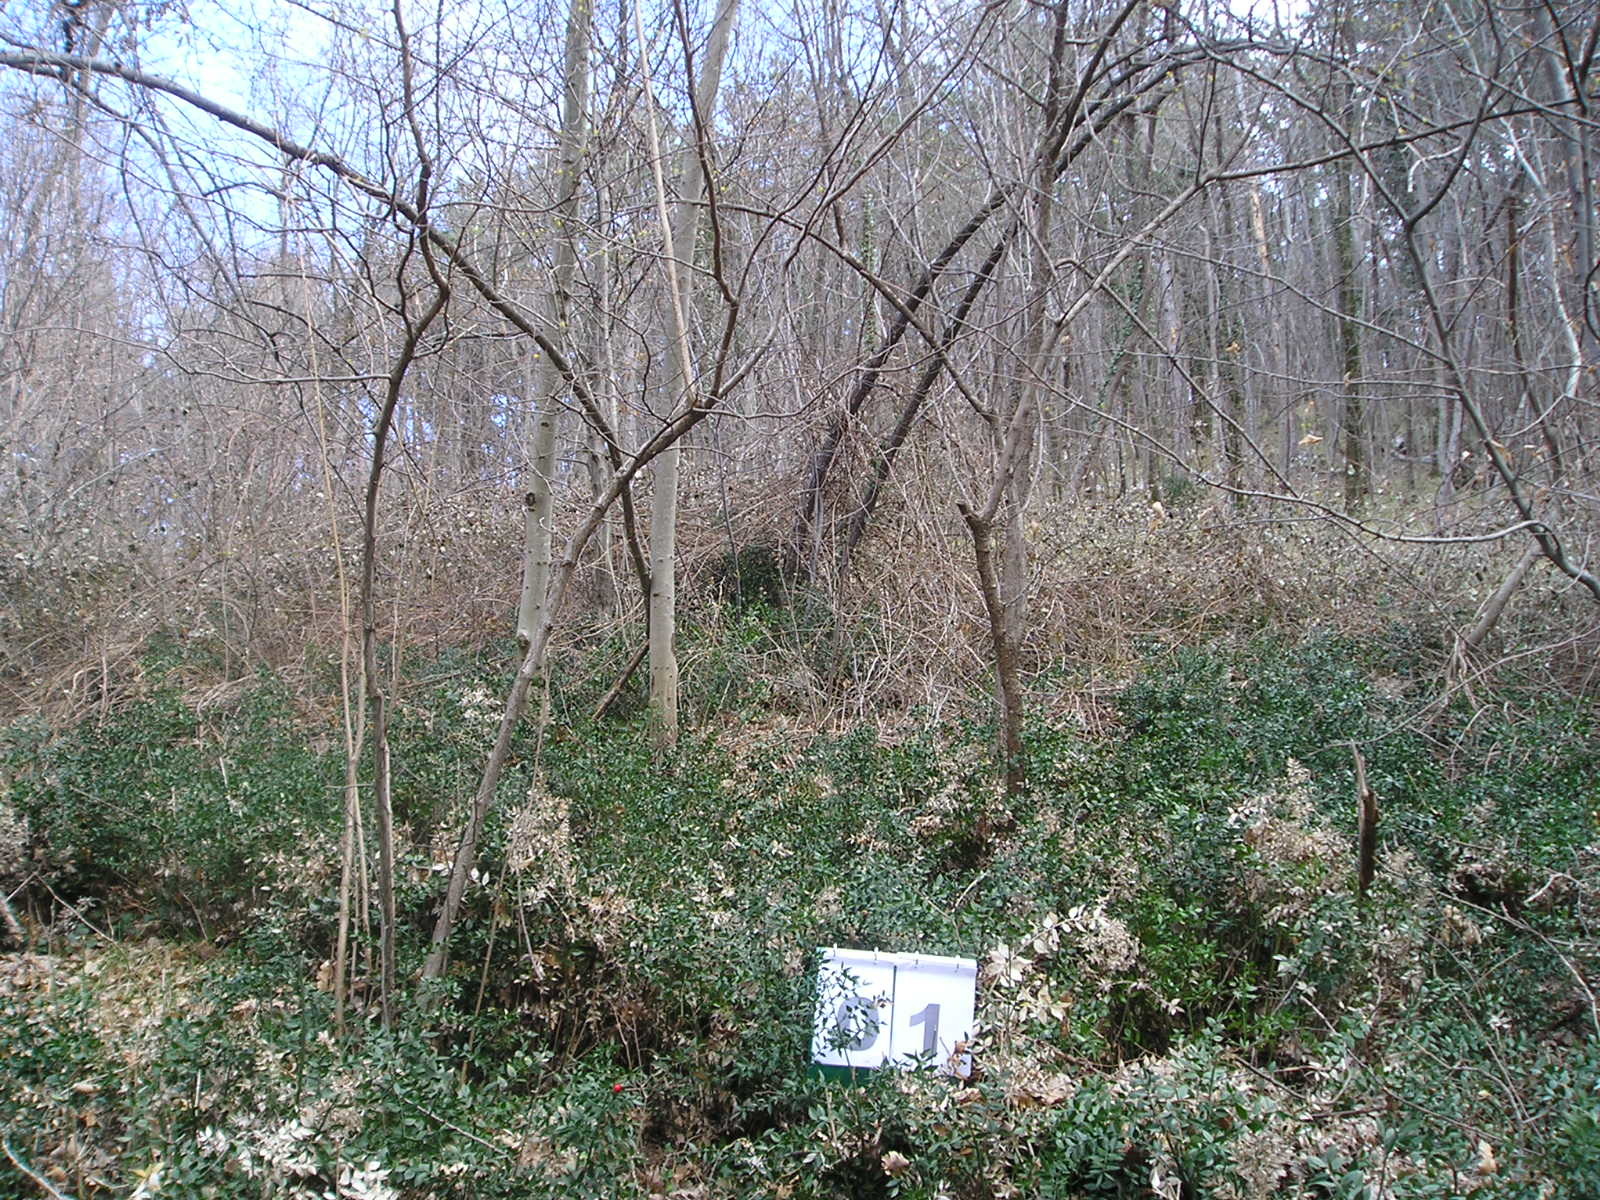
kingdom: Plantae
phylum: Tracheophyta
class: Magnoliopsida
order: Cornales
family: Cornaceae
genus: Cornus
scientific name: Cornus mas
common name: Cornelian-cherry
